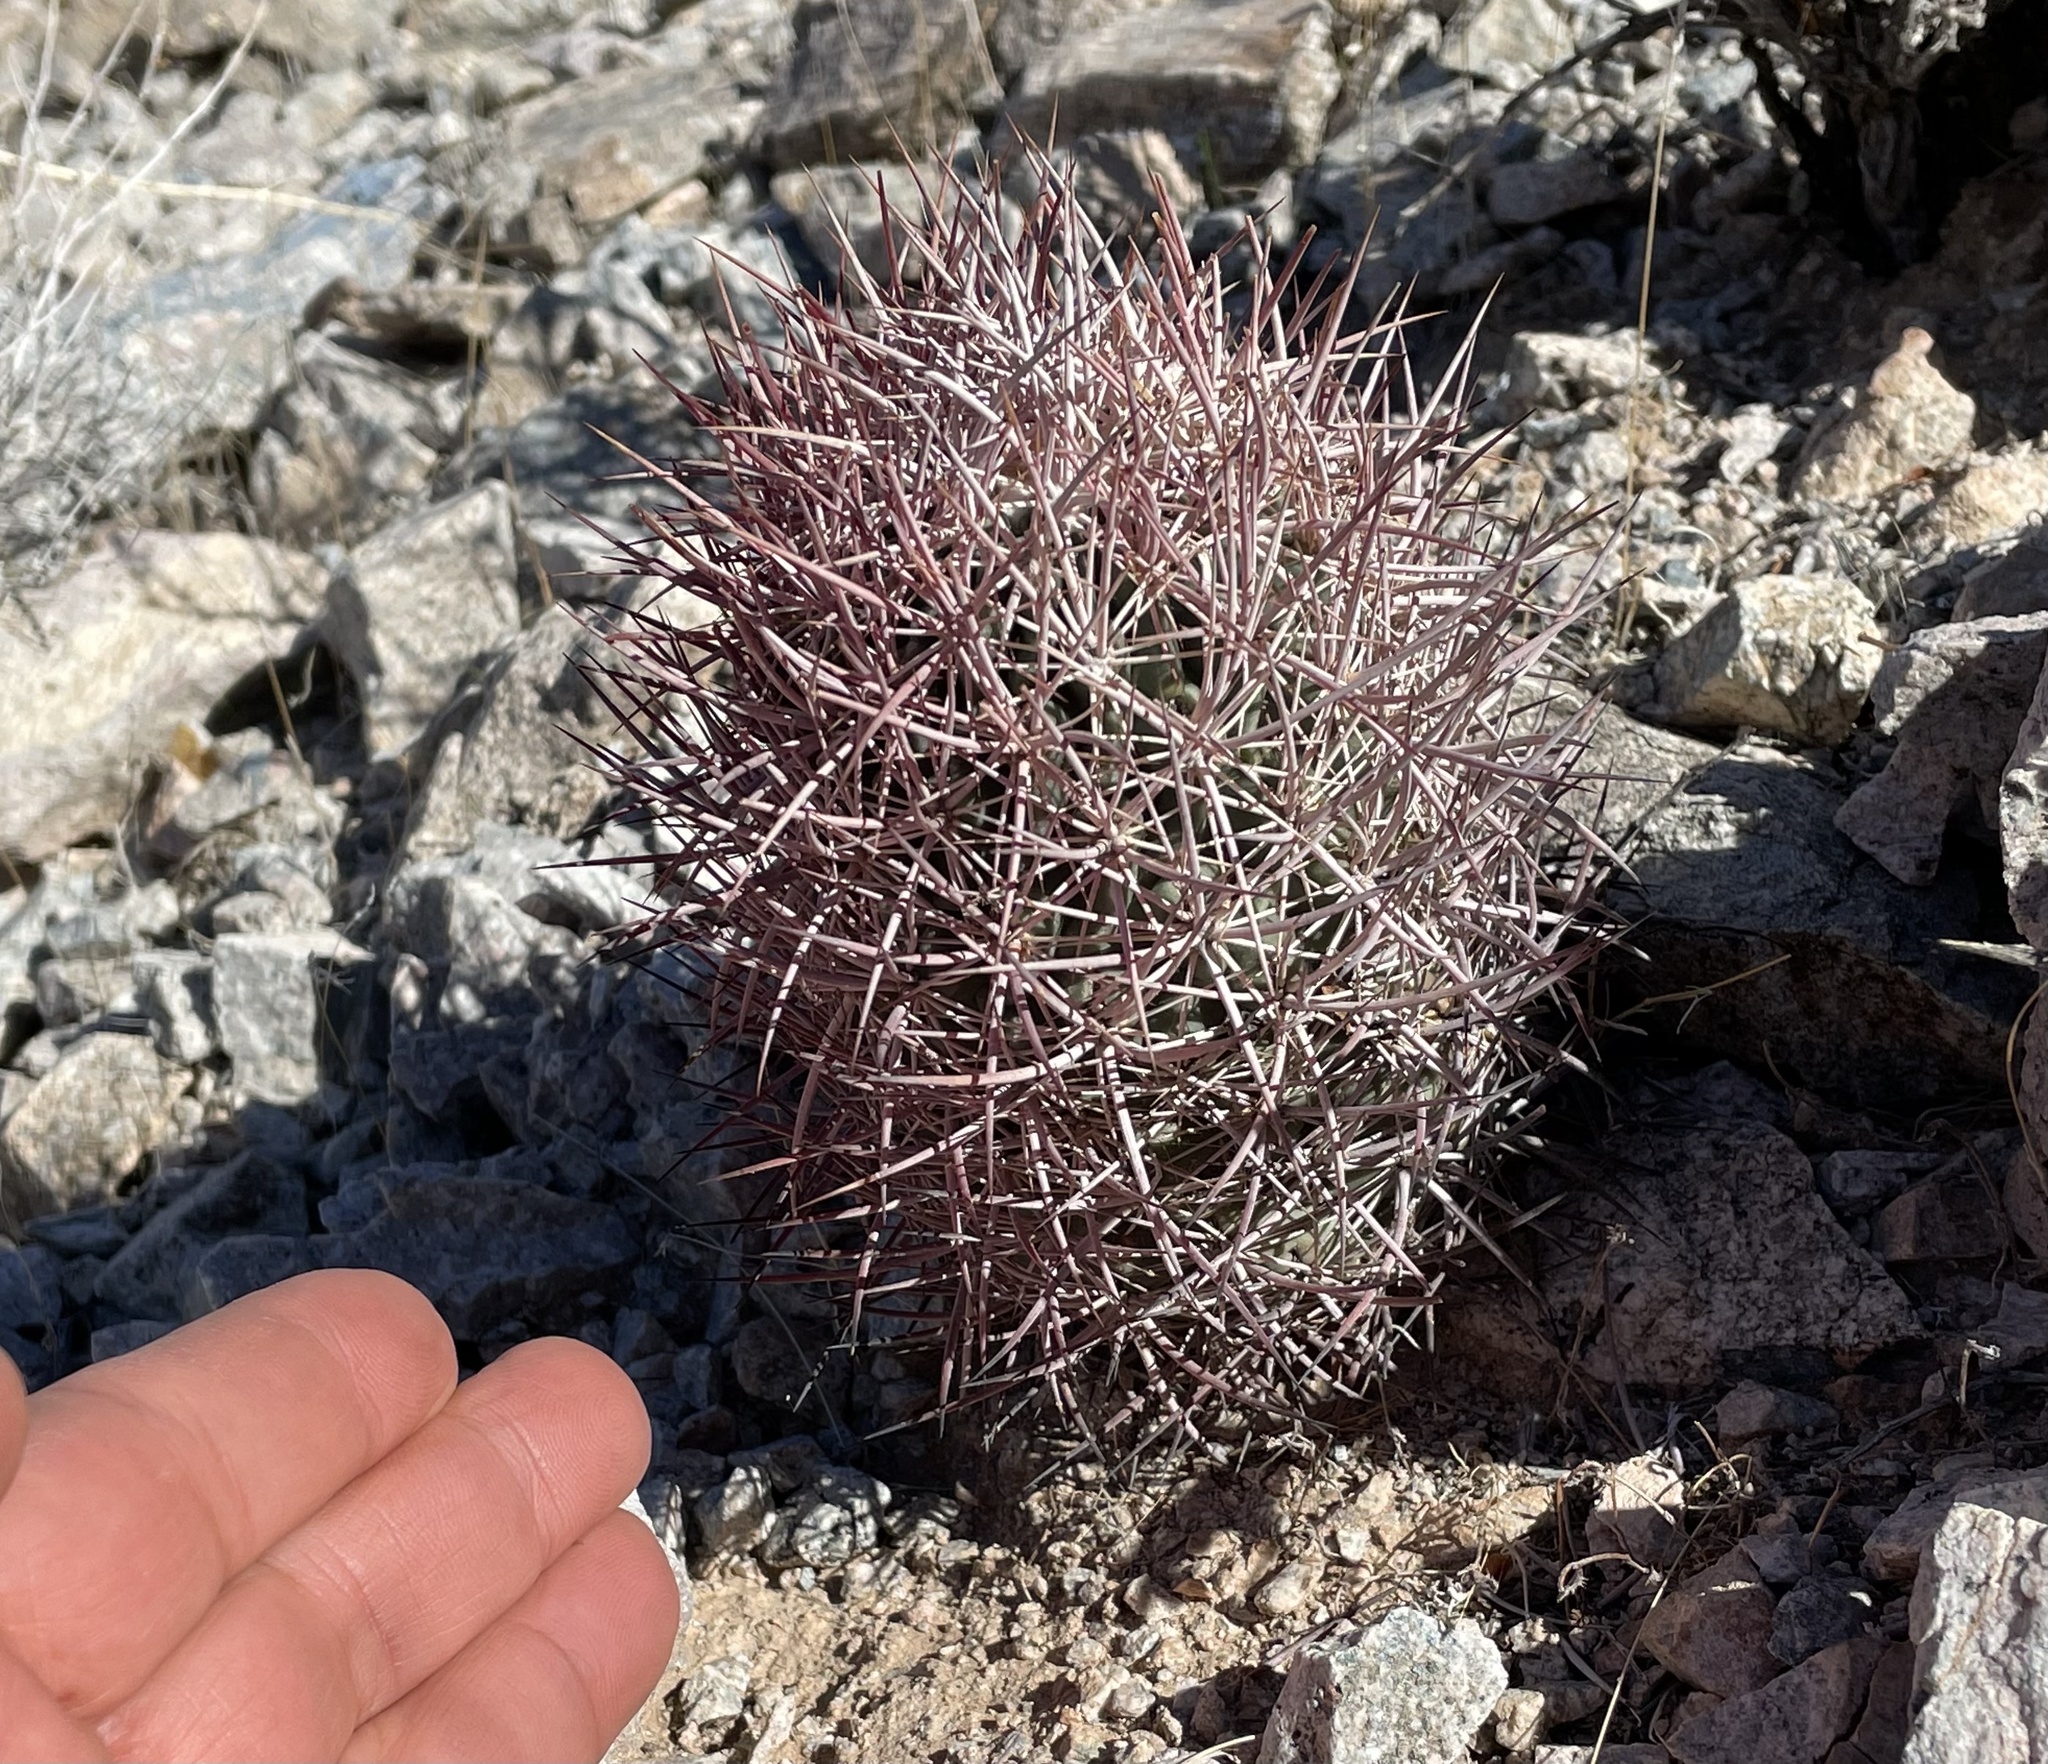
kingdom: Plantae
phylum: Tracheophyta
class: Magnoliopsida
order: Caryophyllales
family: Cactaceae
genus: Sclerocactus
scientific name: Sclerocactus johnsonii
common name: Eight-spine fishhook cactus
